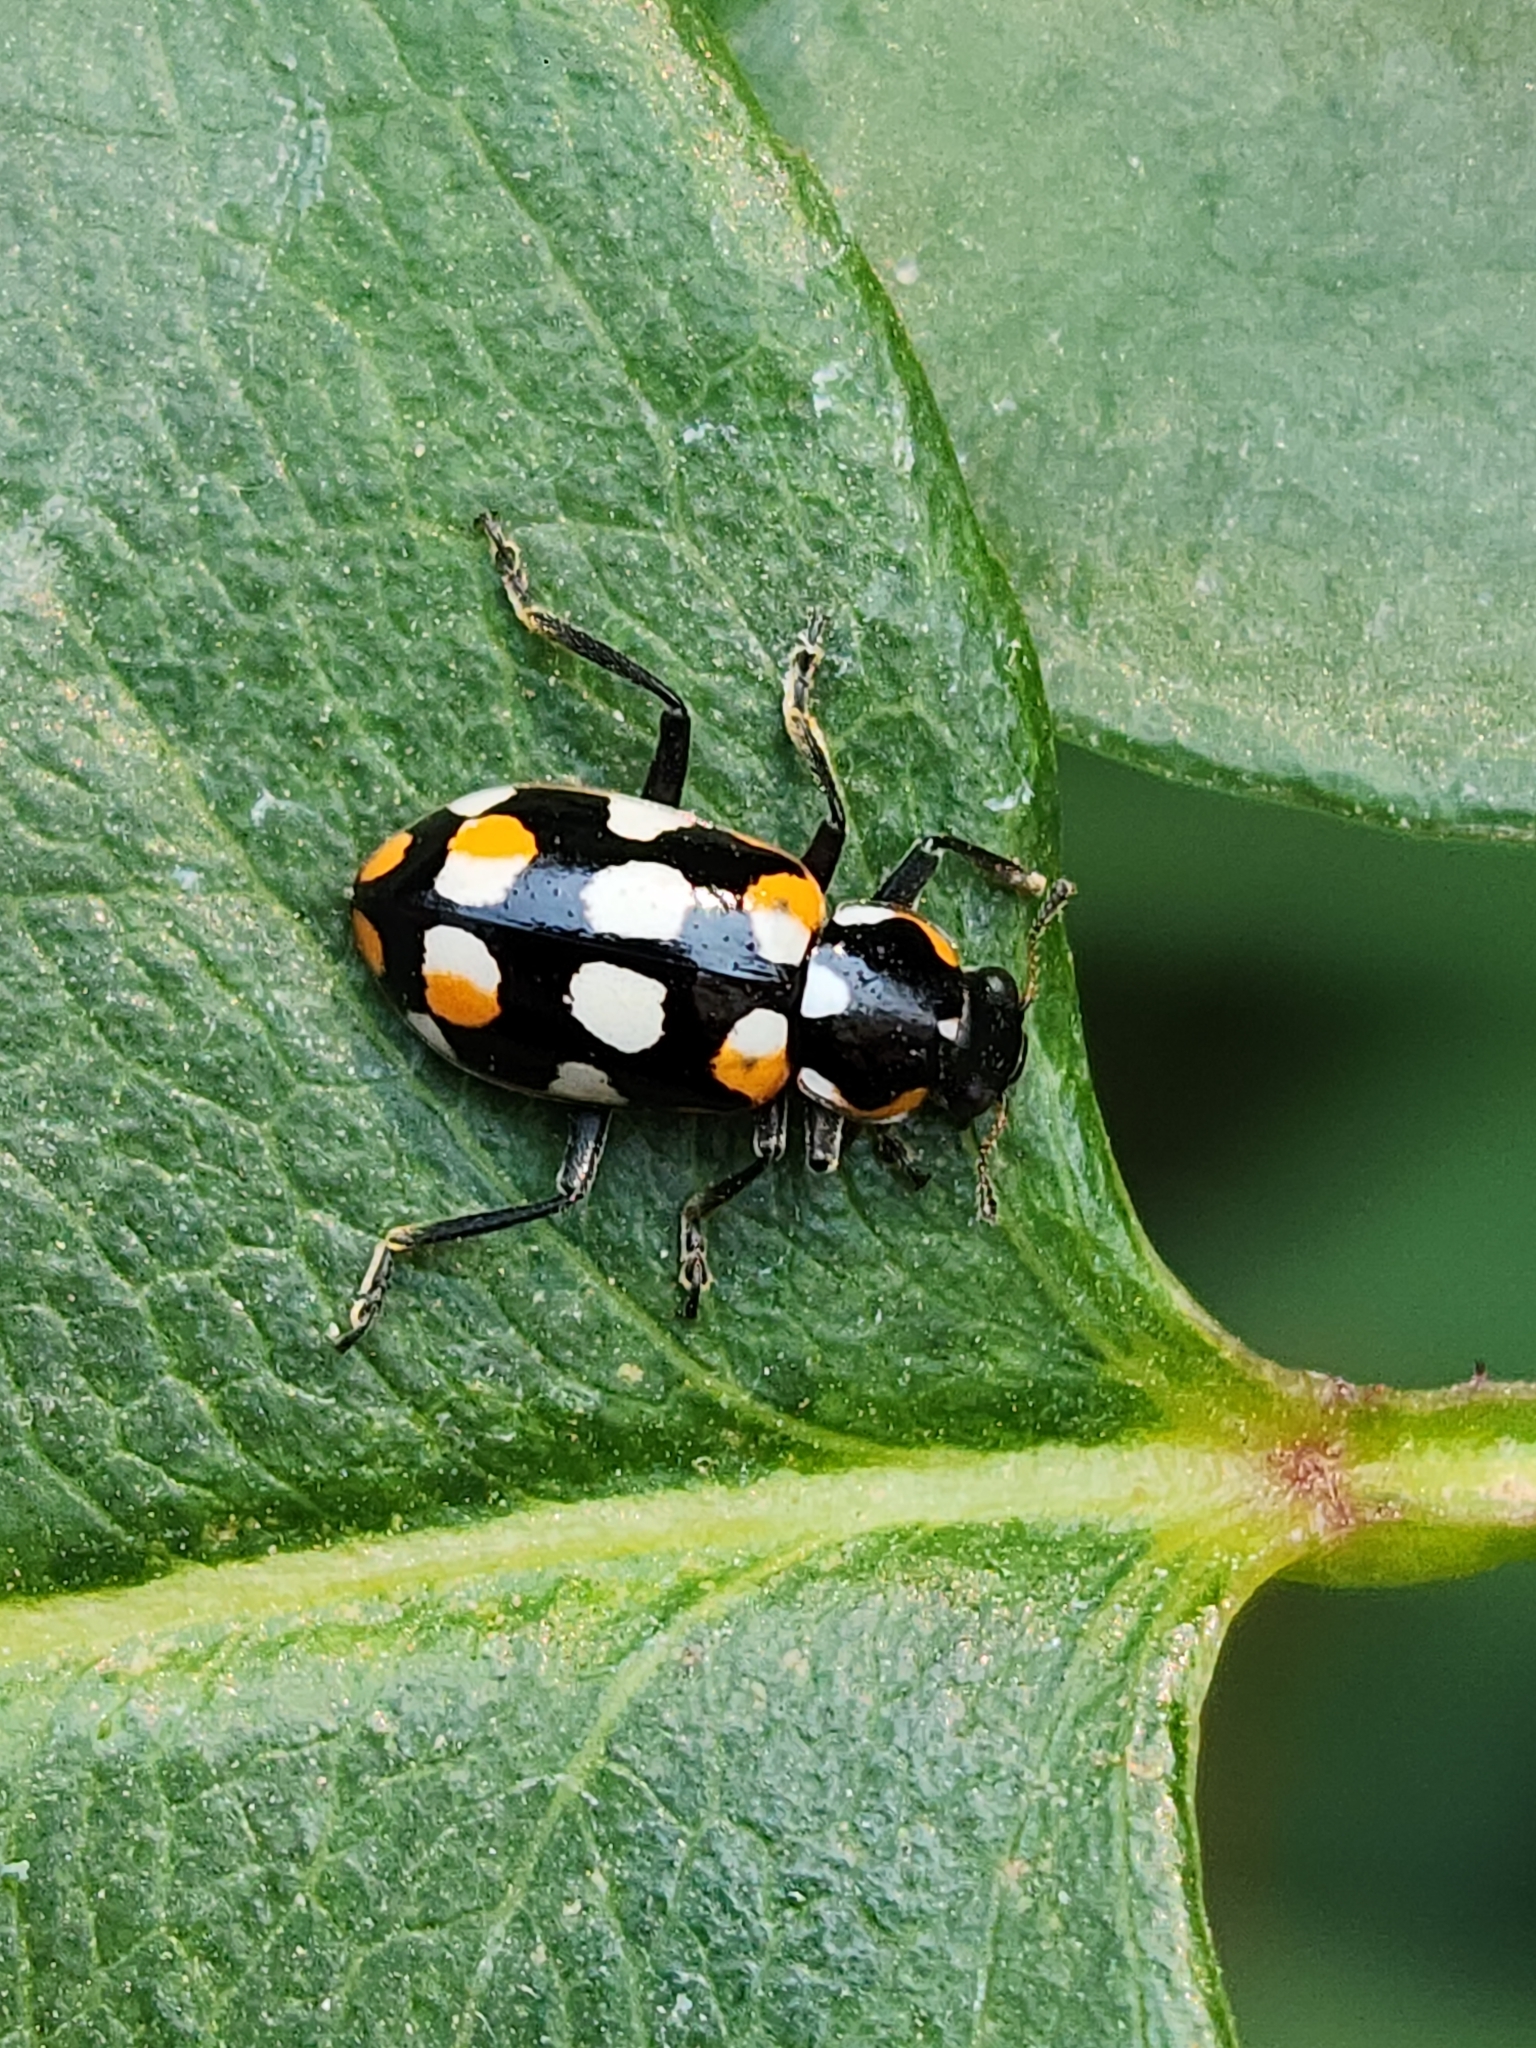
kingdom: Animalia
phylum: Arthropoda
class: Insecta
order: Coleoptera
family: Coccinellidae
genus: Eriopis
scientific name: Eriopis connexa
